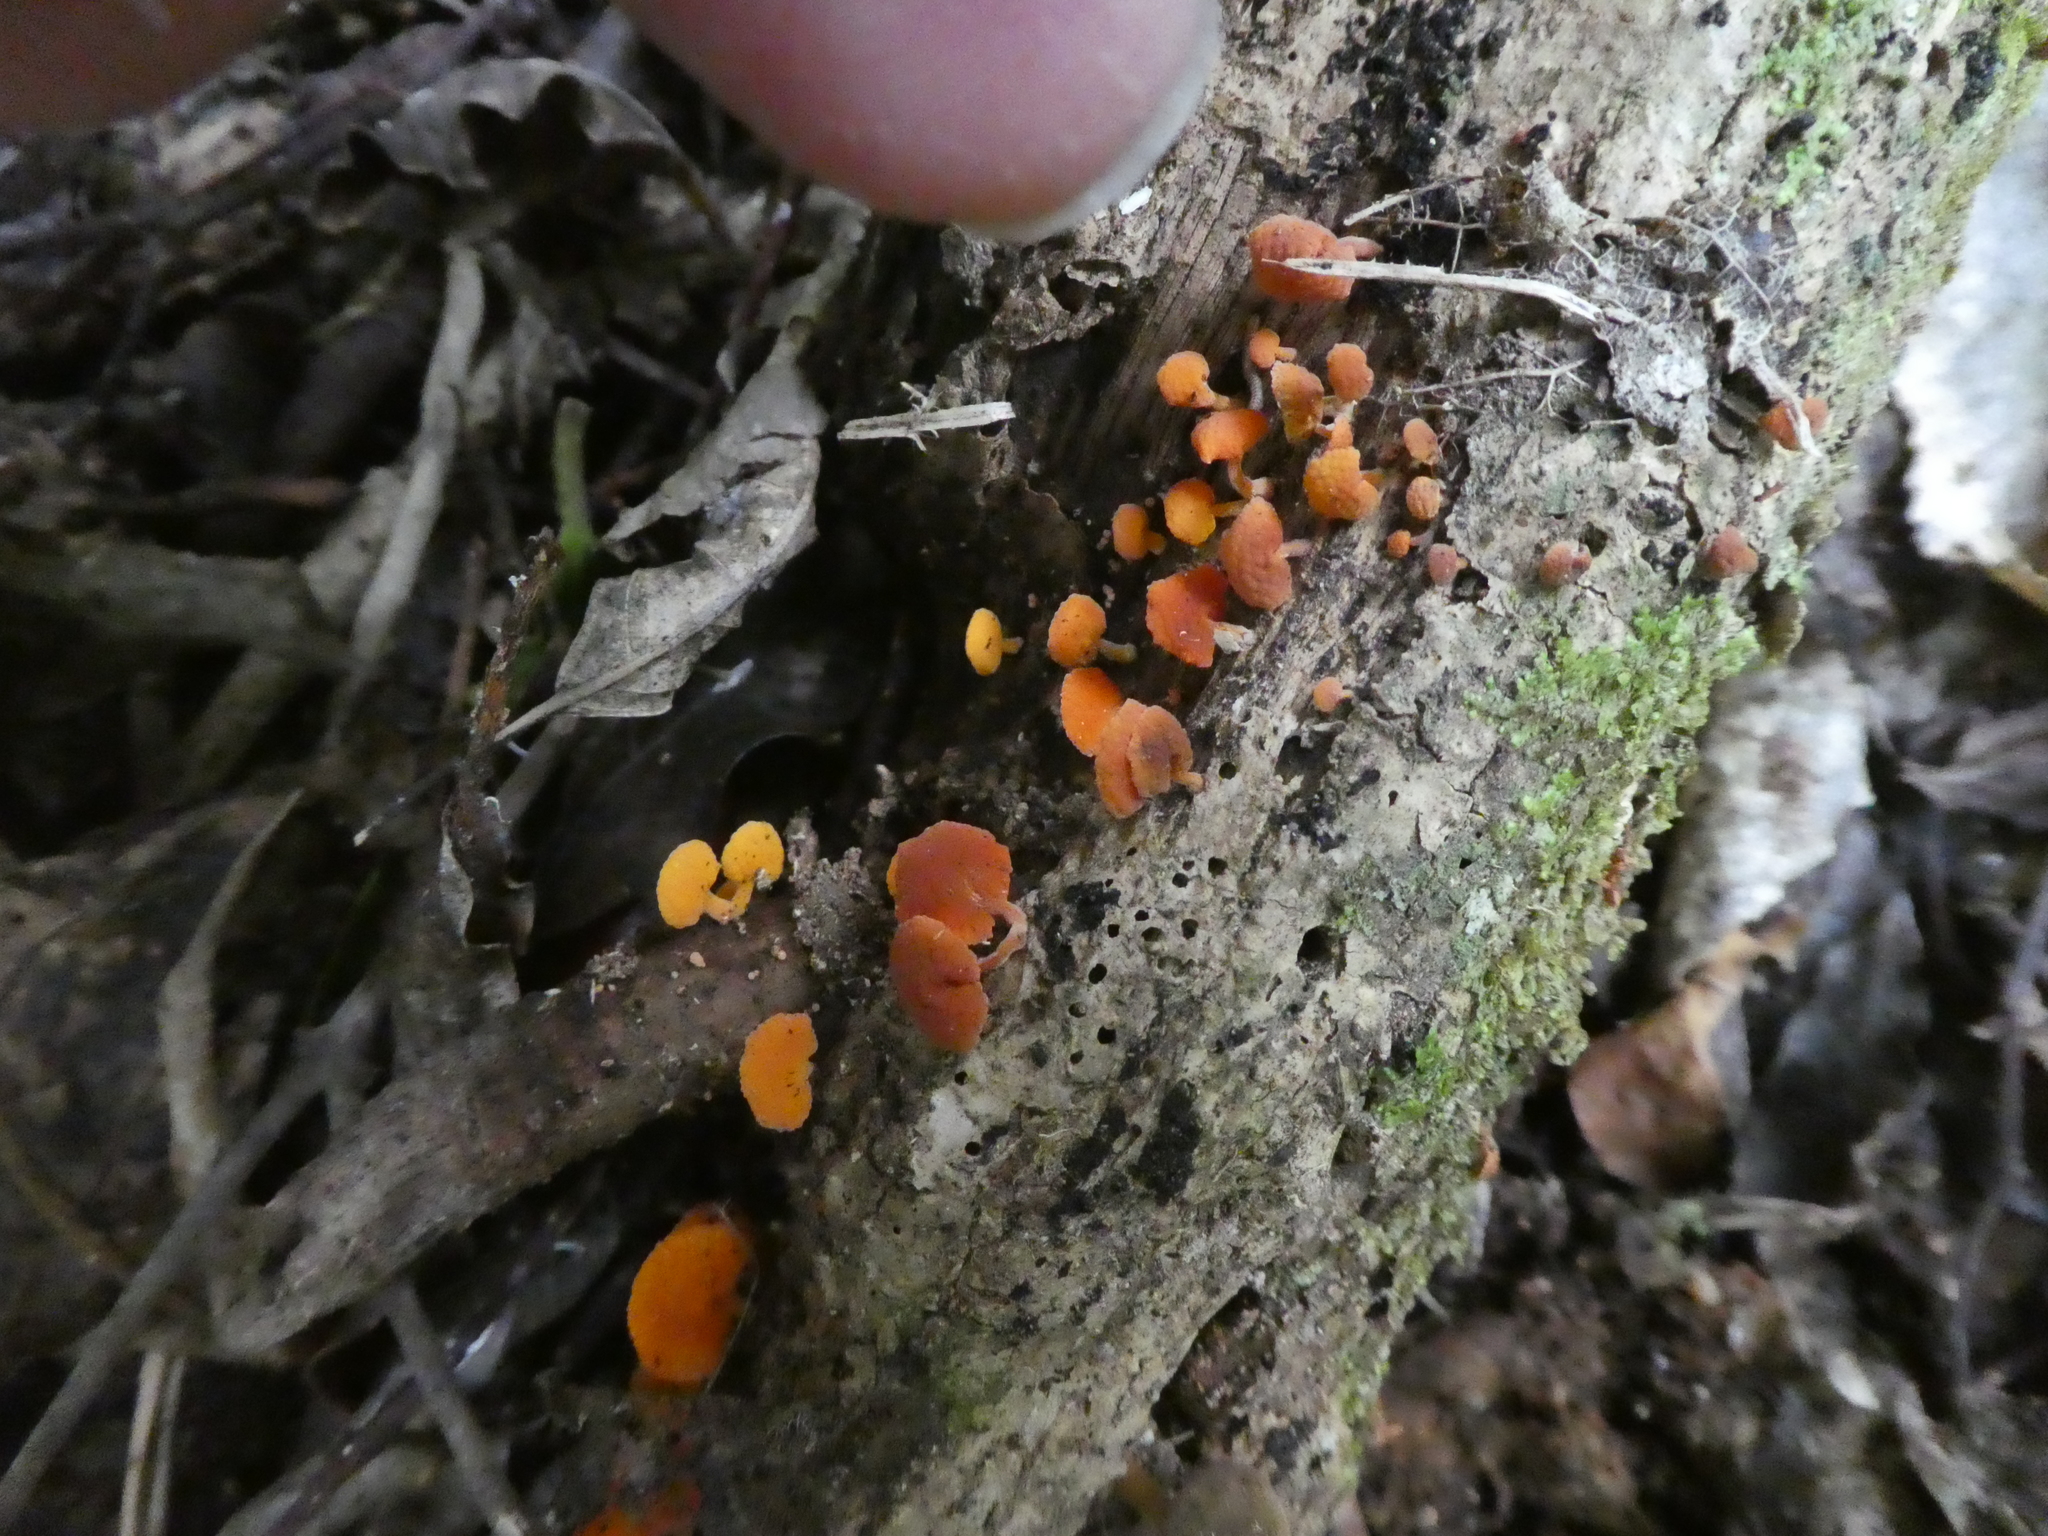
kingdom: Fungi
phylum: Basidiomycota
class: Agaricomycetes
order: Agaricales
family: Mycenaceae
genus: Favolaschia
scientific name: Favolaschia claudopus
